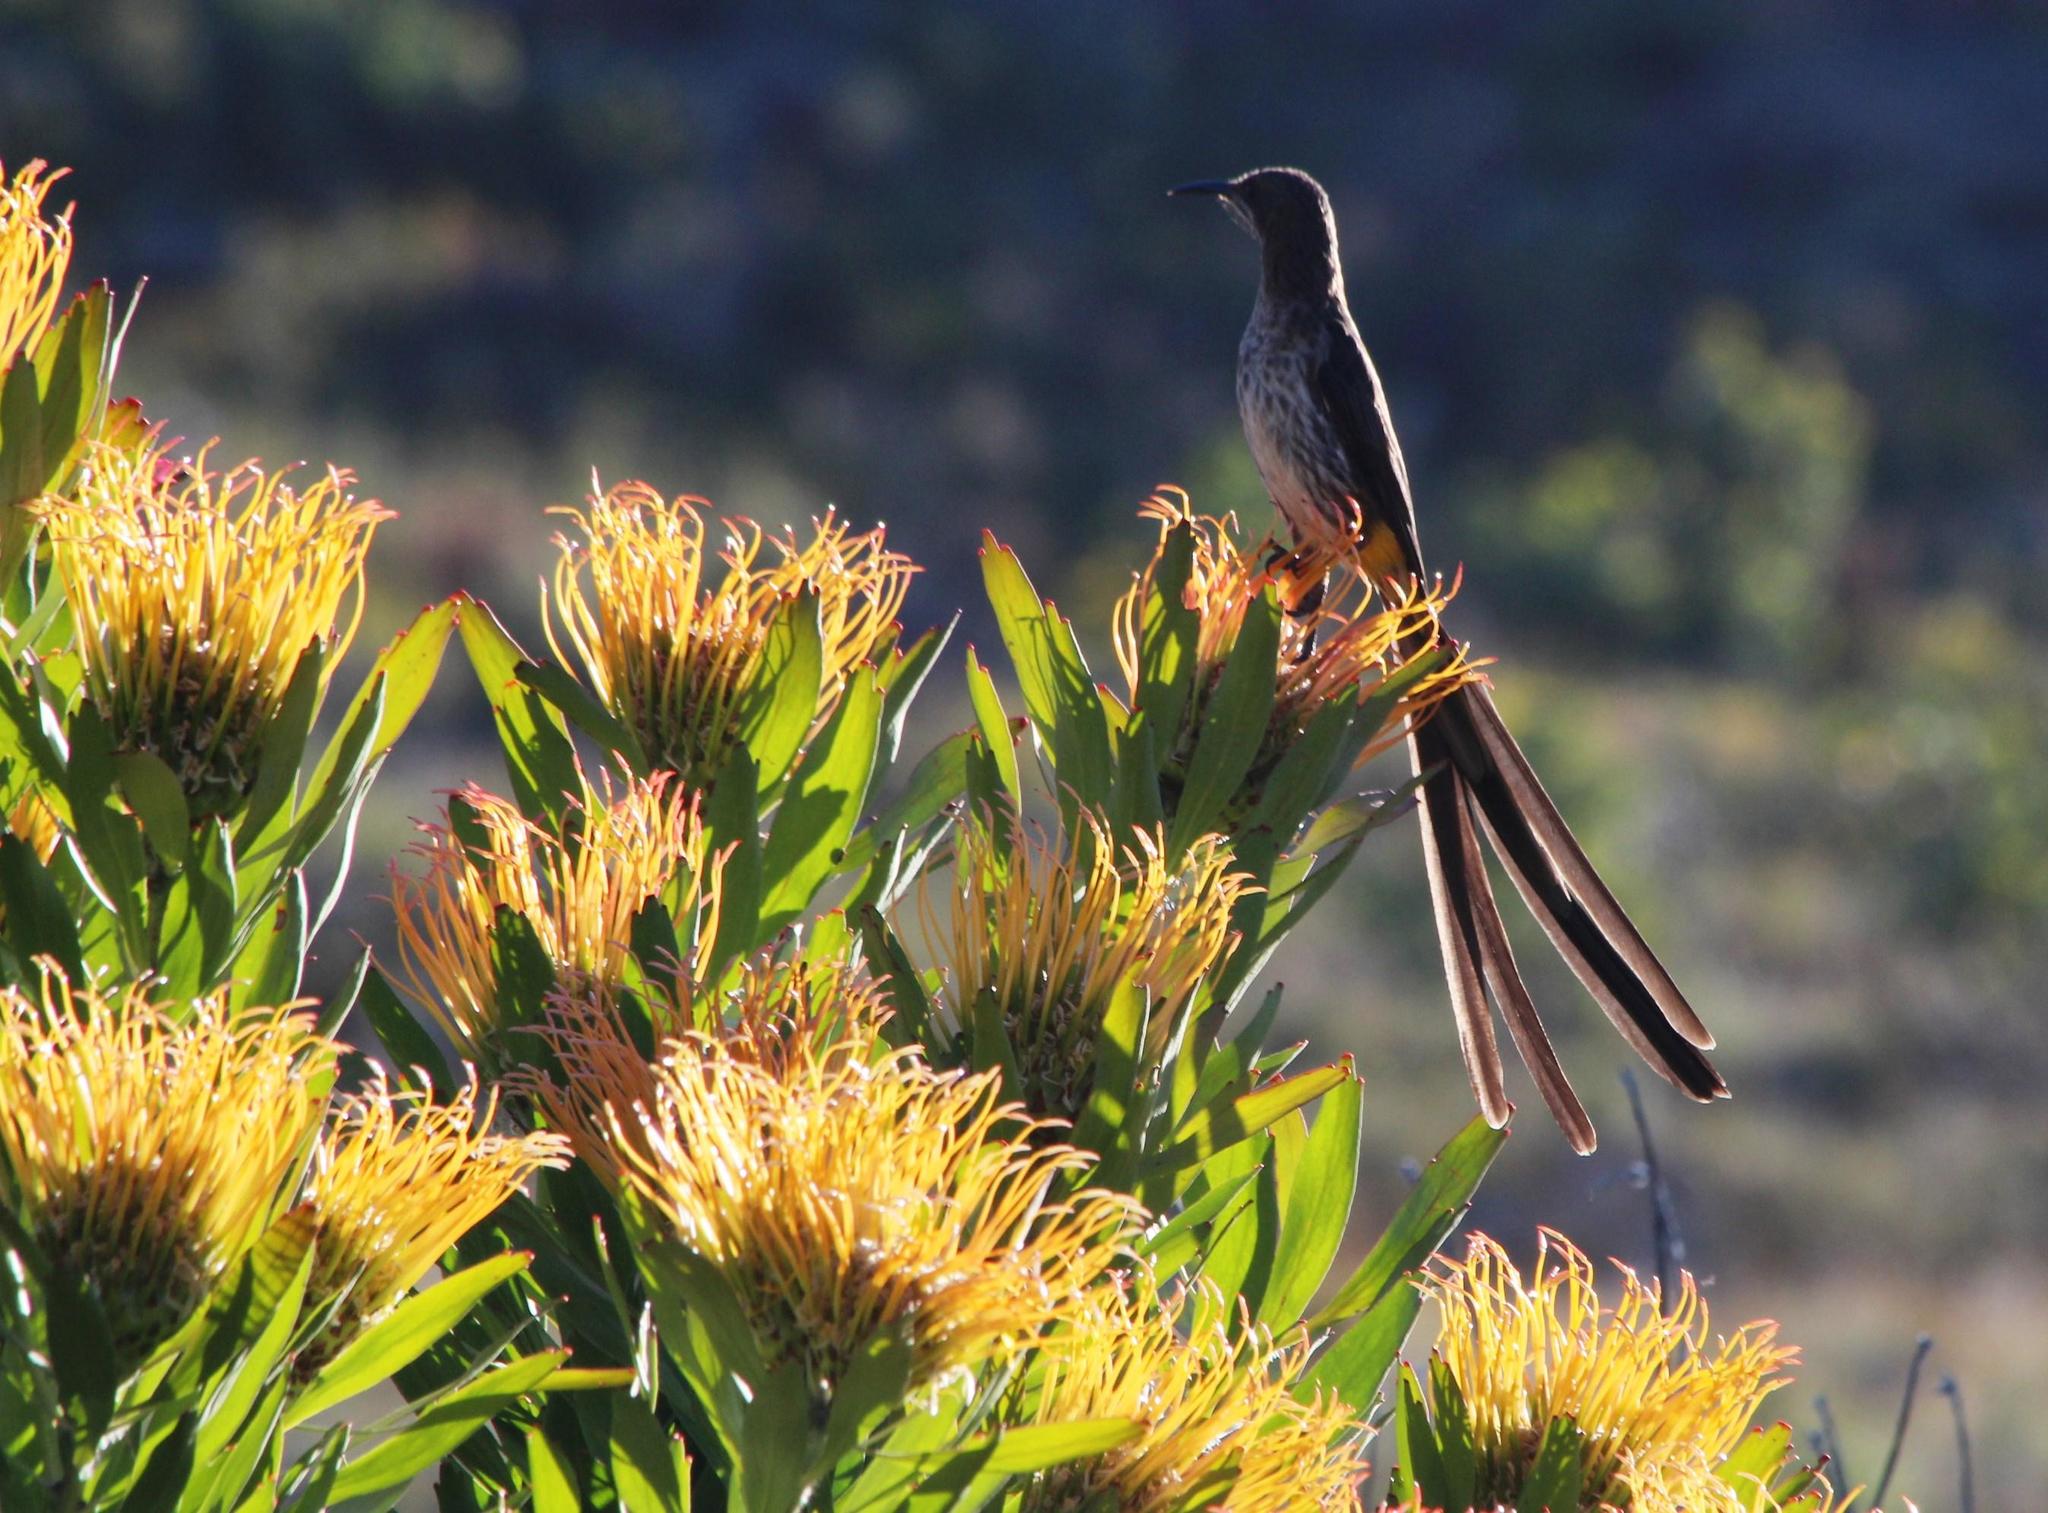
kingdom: Animalia
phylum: Chordata
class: Aves
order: Passeriformes
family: Promeropidae
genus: Promerops
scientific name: Promerops cafer
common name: Cape sugarbird
